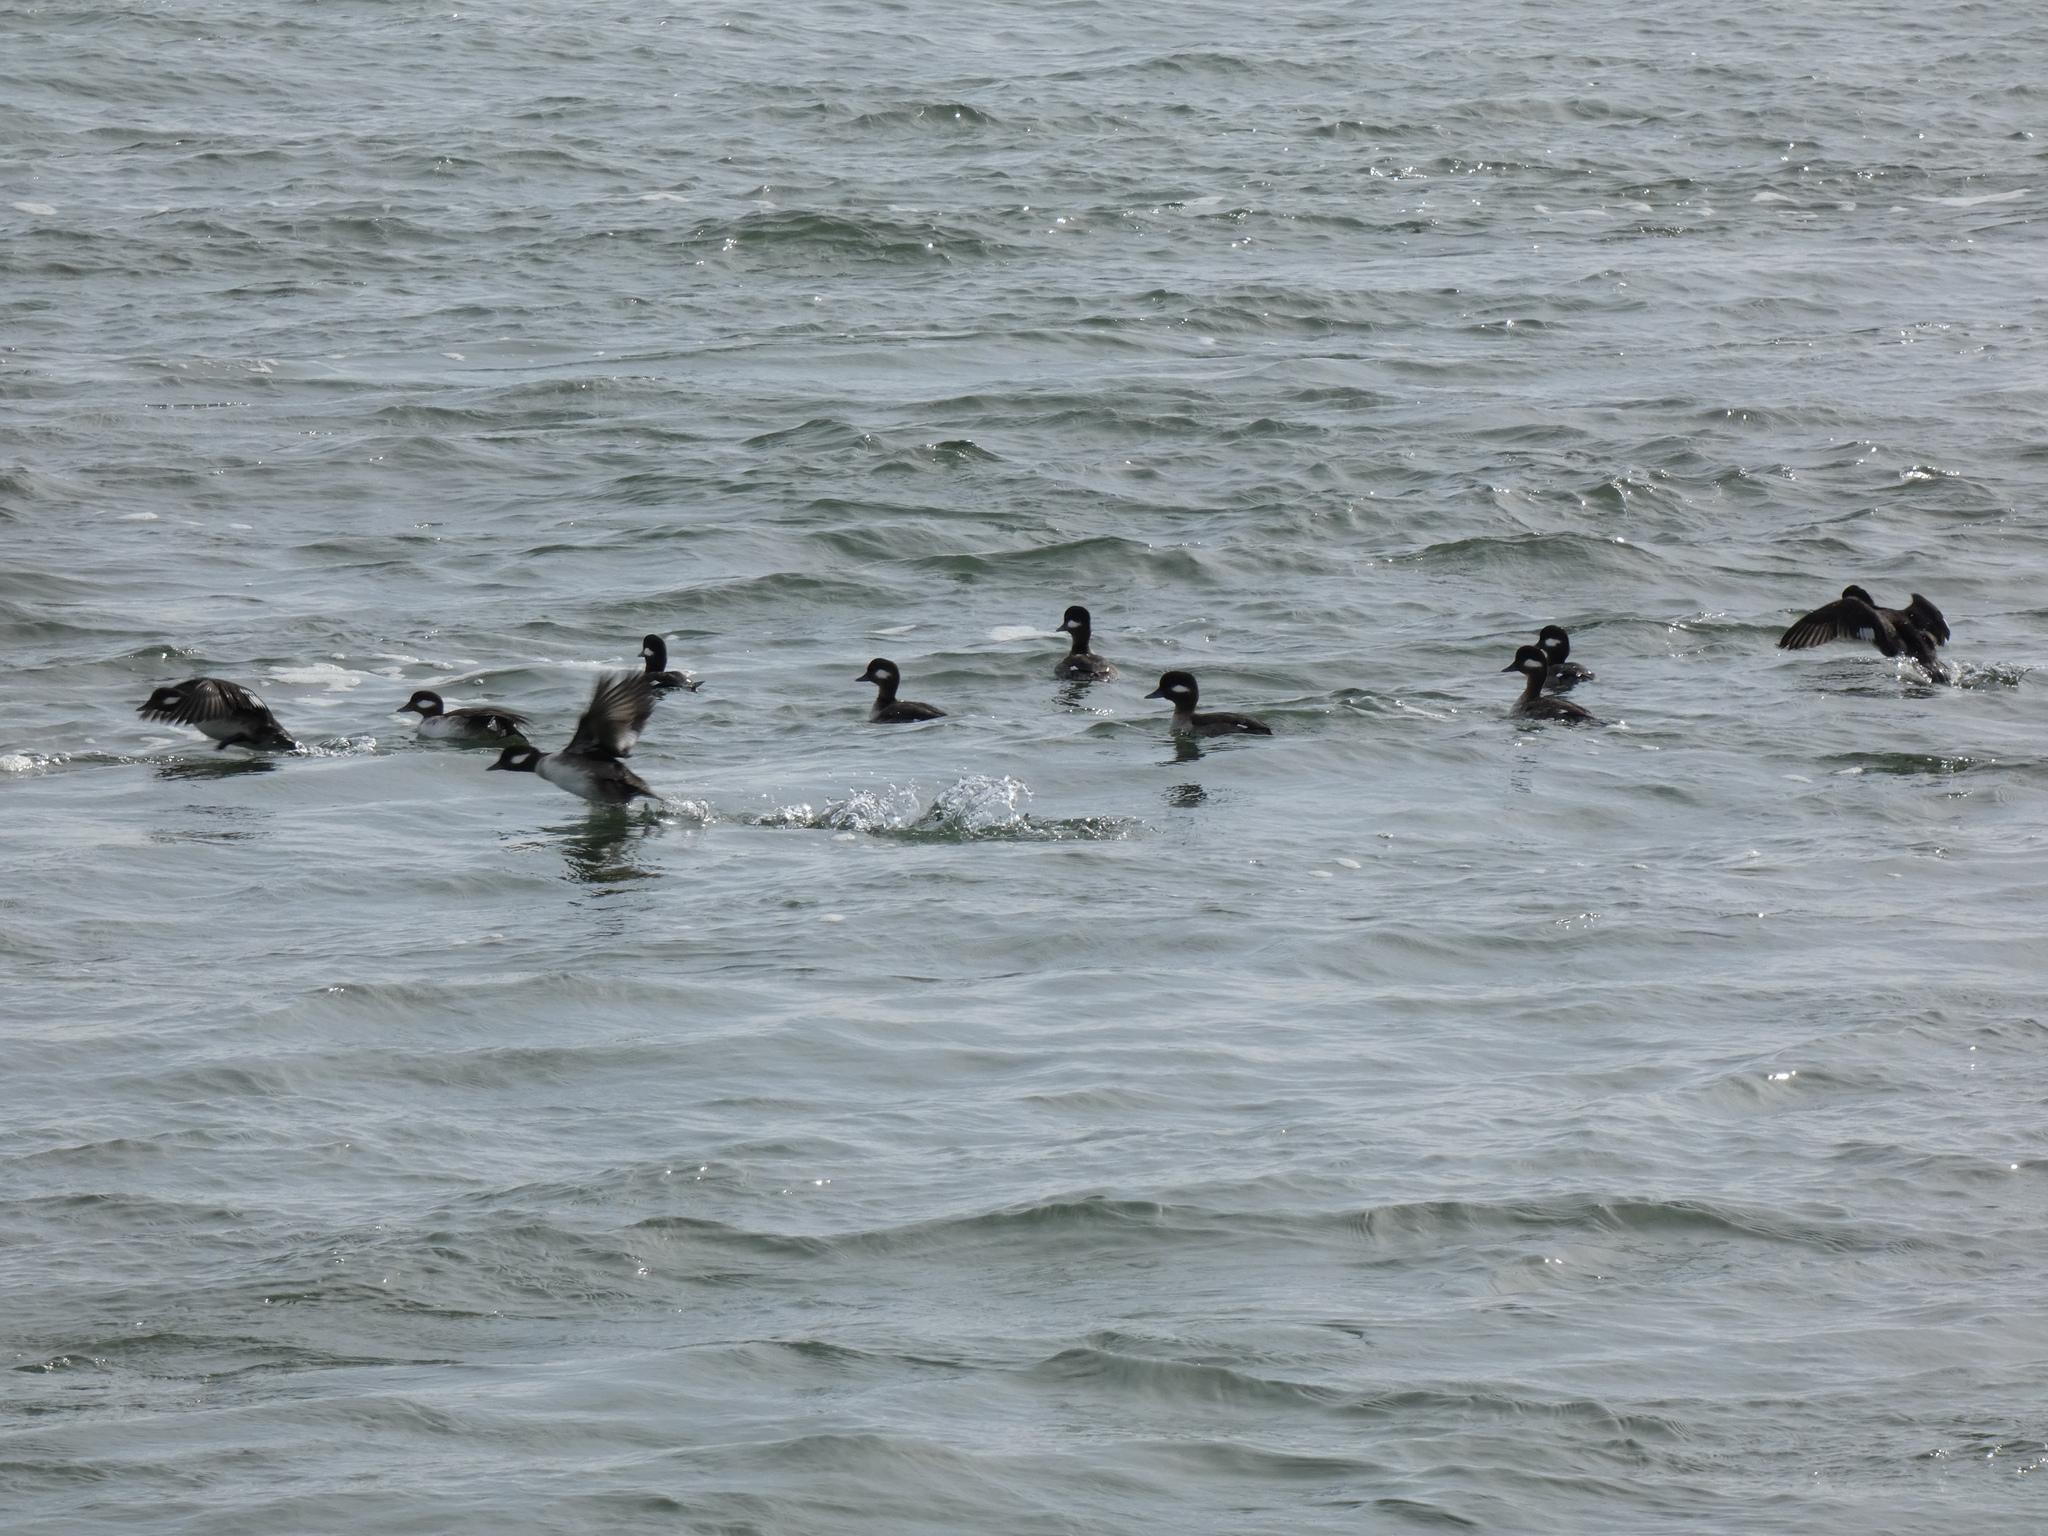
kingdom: Animalia
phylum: Chordata
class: Aves
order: Anseriformes
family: Anatidae
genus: Bucephala
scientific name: Bucephala albeola
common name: Bufflehead
